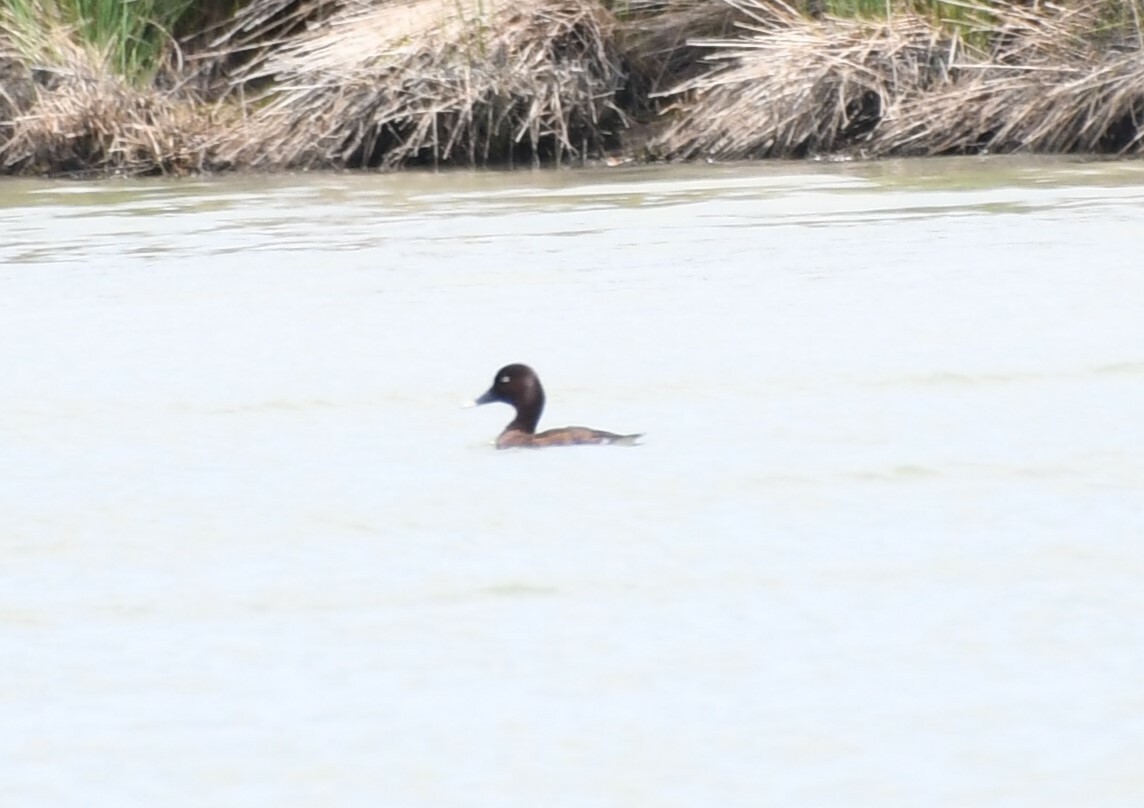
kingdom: Animalia
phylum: Chordata
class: Aves
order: Anseriformes
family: Anatidae
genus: Aythya
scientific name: Aythya australis
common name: Hardhead
